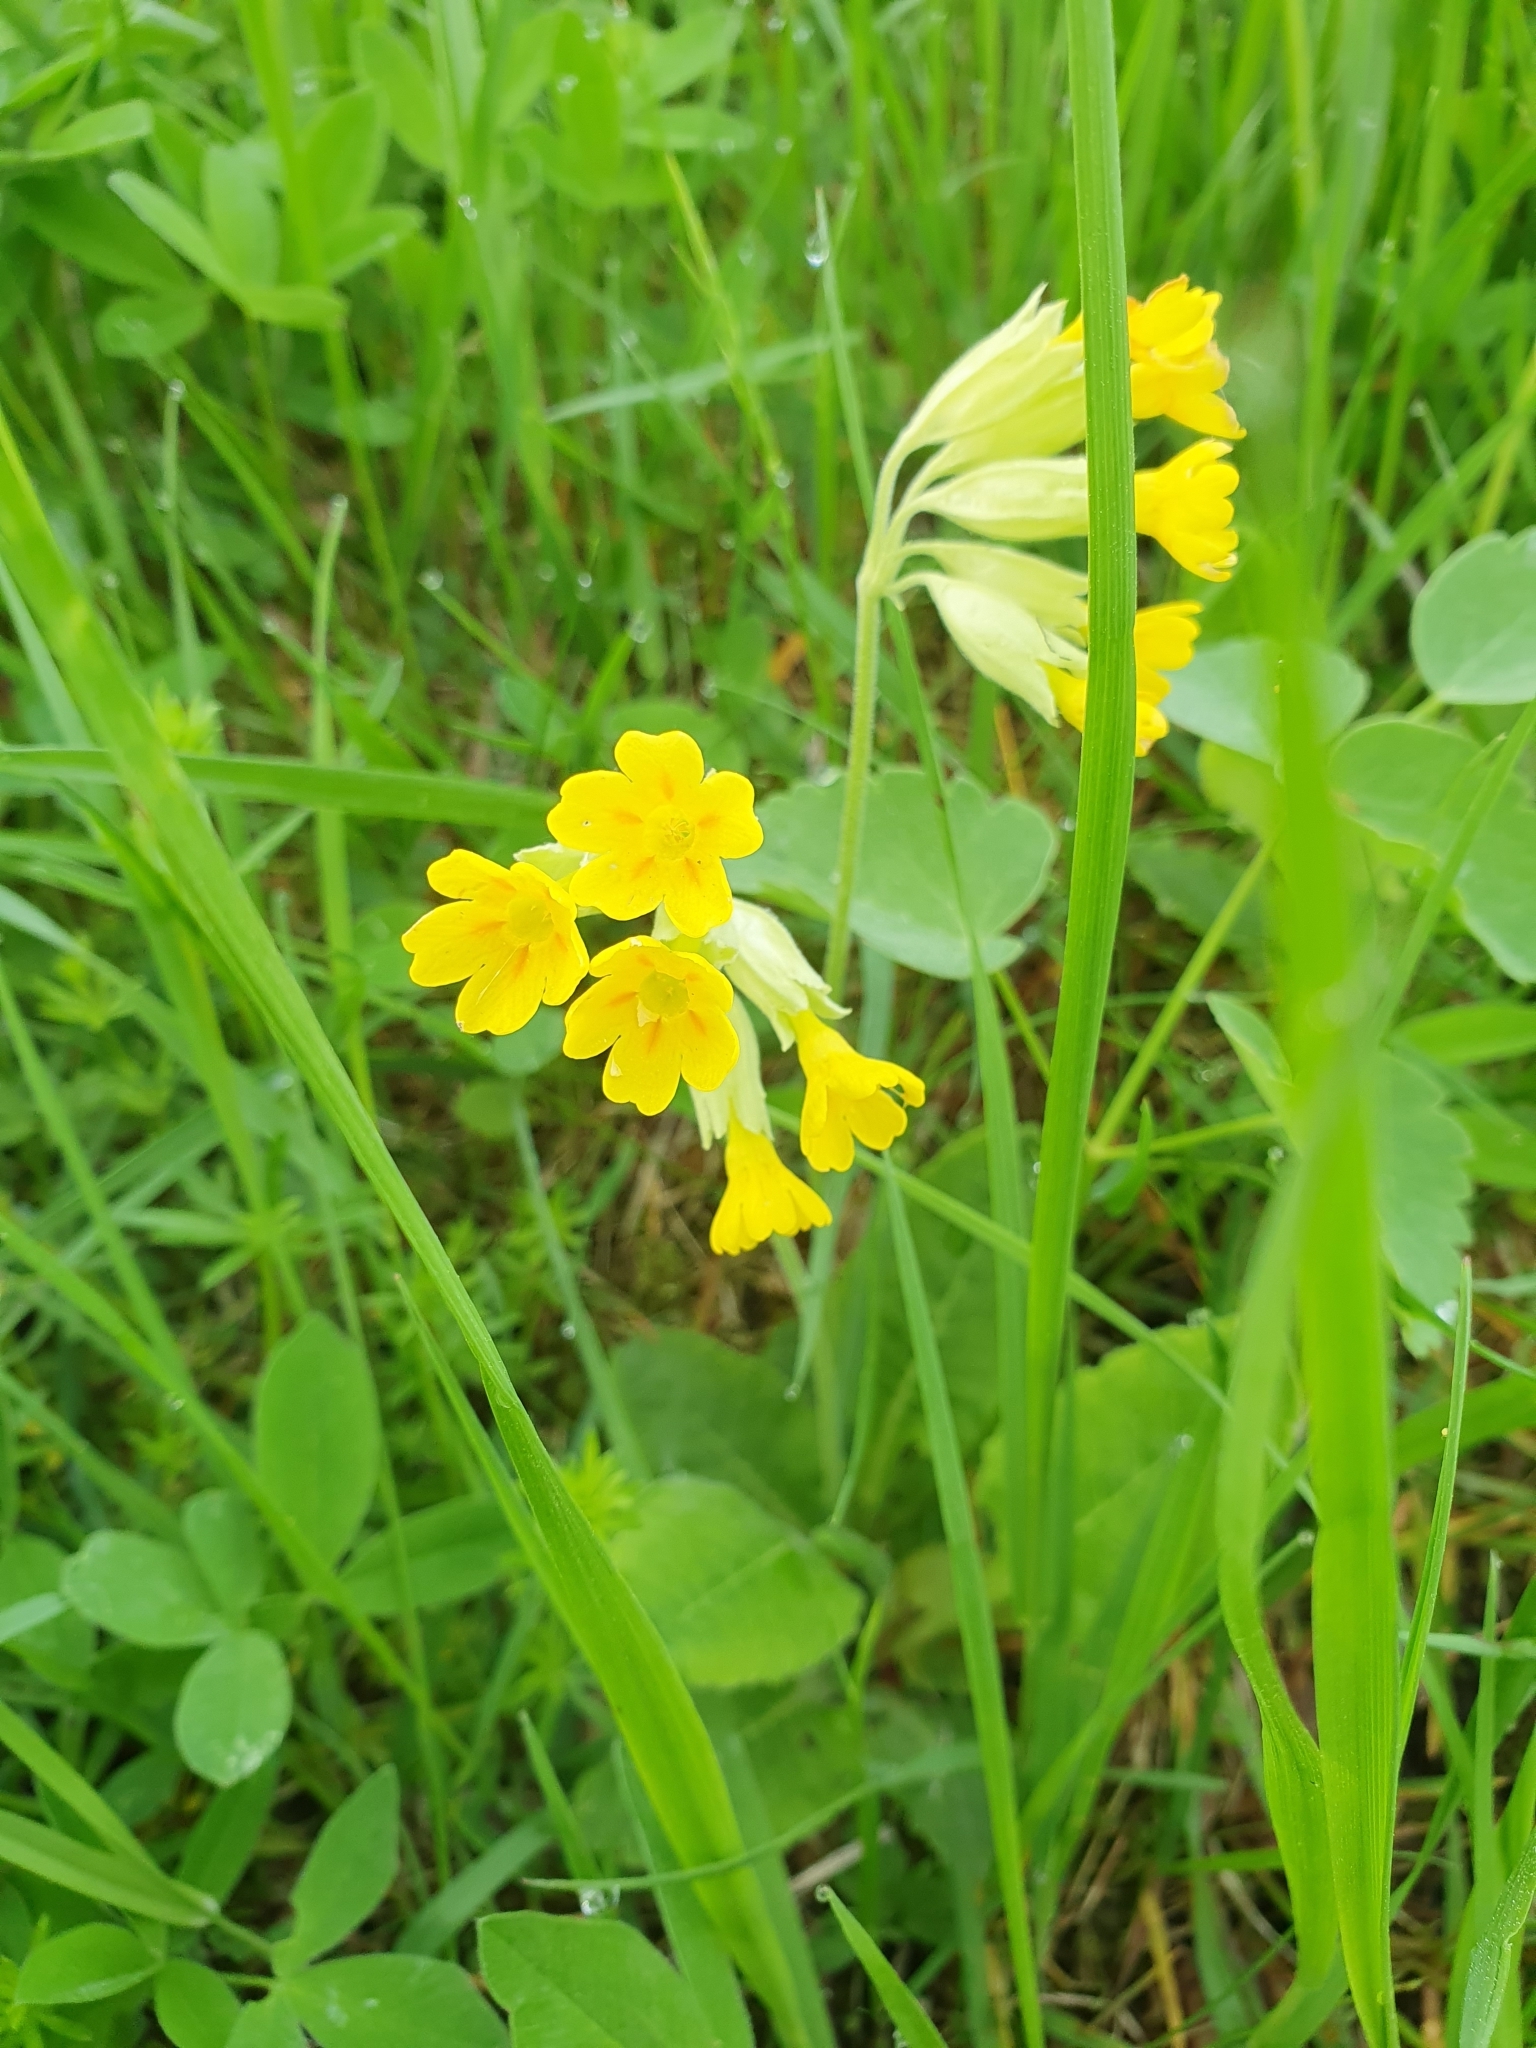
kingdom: Plantae
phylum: Tracheophyta
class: Magnoliopsida
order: Ericales
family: Primulaceae
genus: Primula
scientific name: Primula veris
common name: Cowslip
